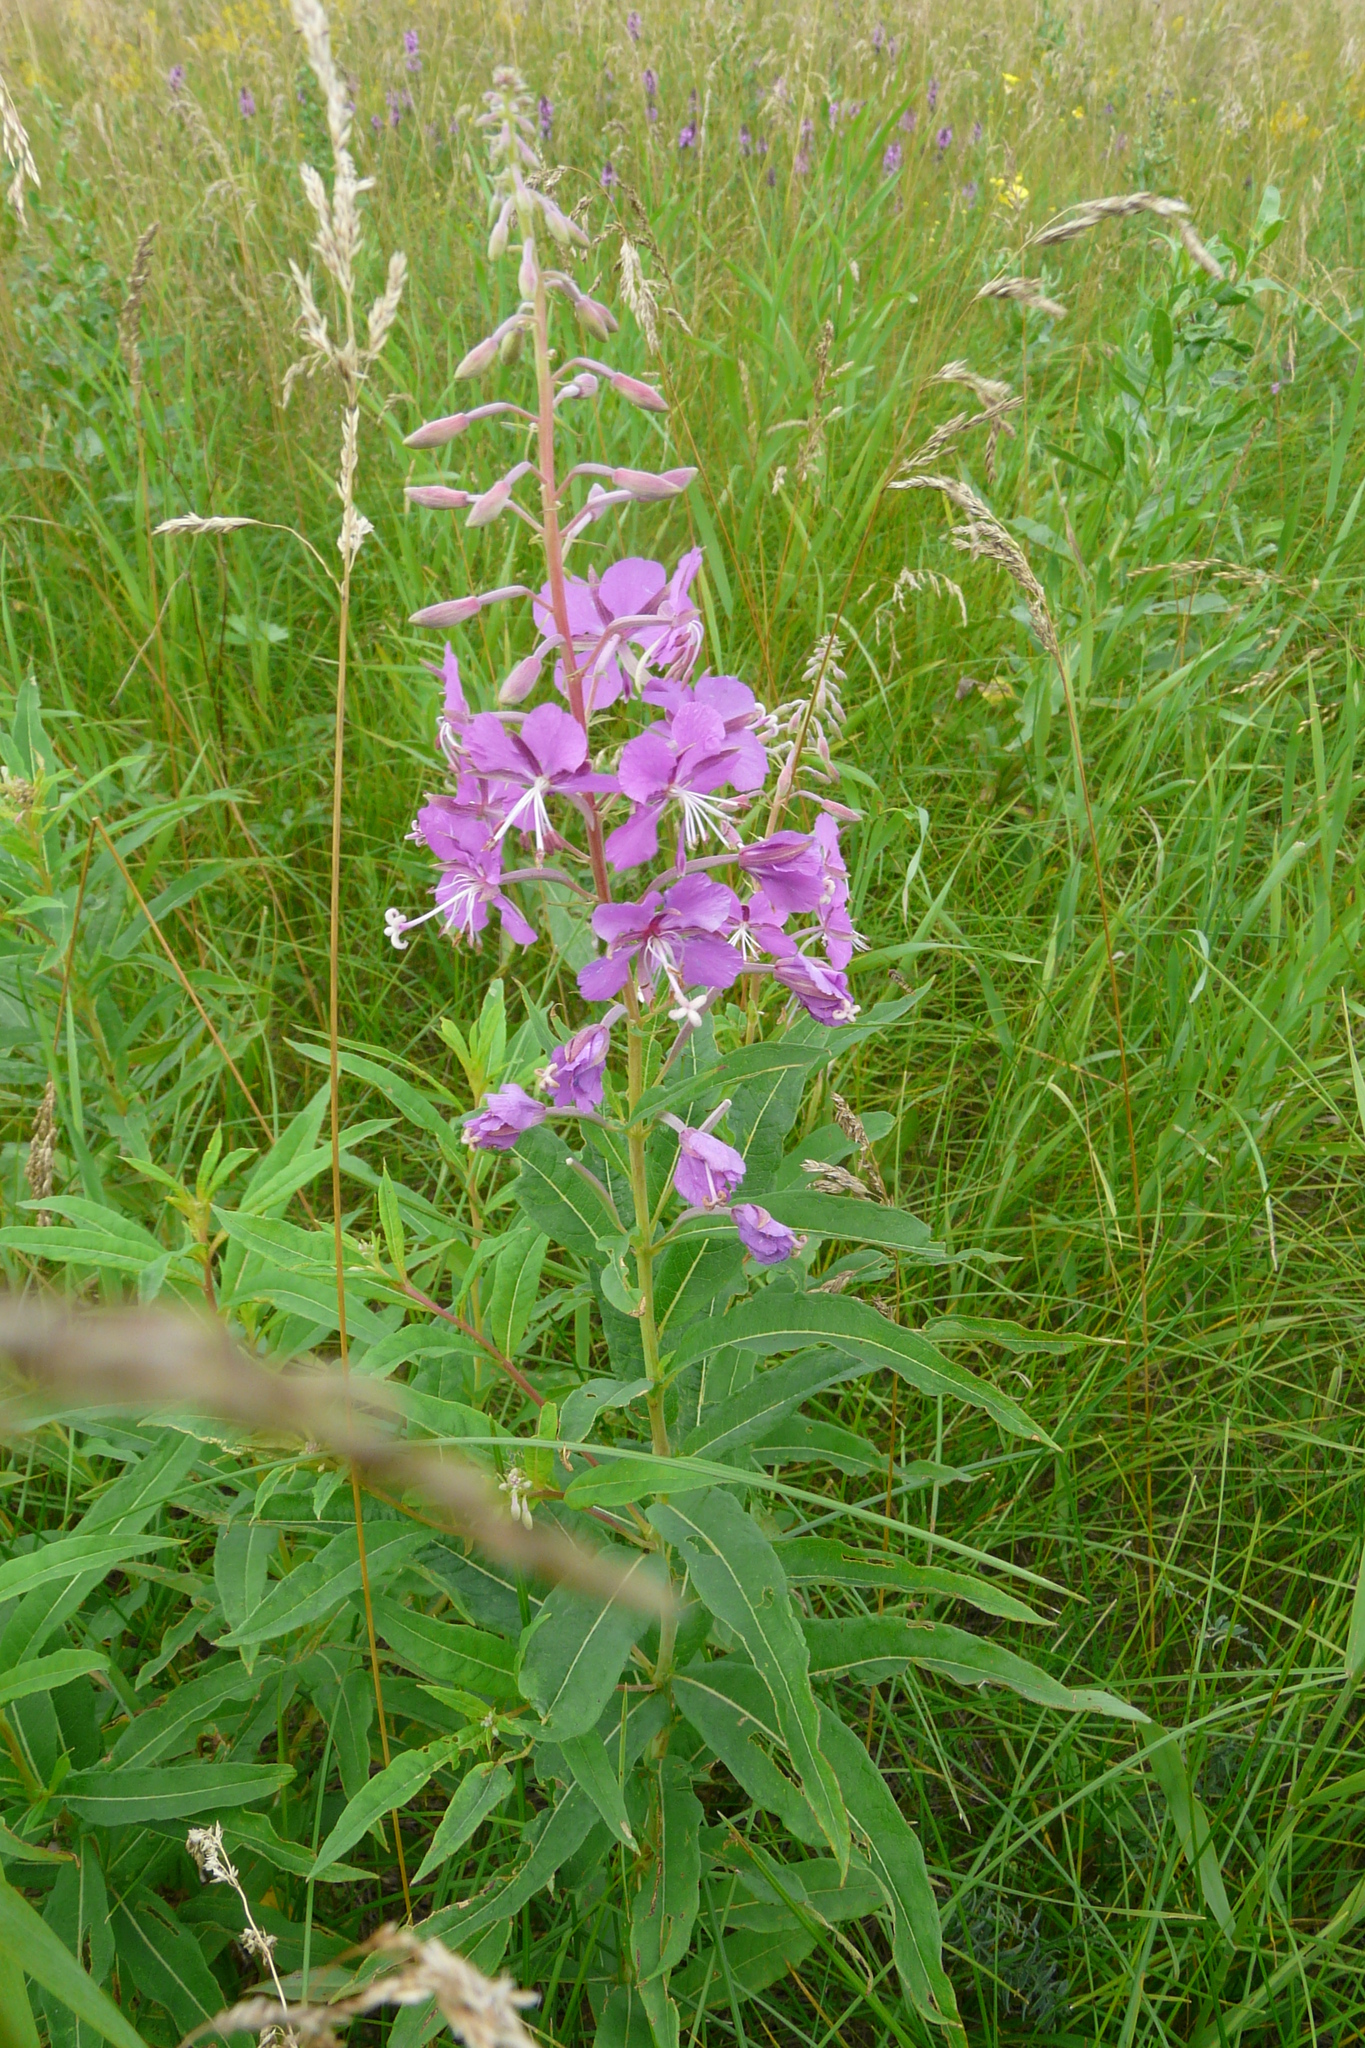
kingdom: Plantae
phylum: Tracheophyta
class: Magnoliopsida
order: Myrtales
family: Onagraceae
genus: Chamaenerion
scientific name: Chamaenerion angustifolium
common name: Fireweed
